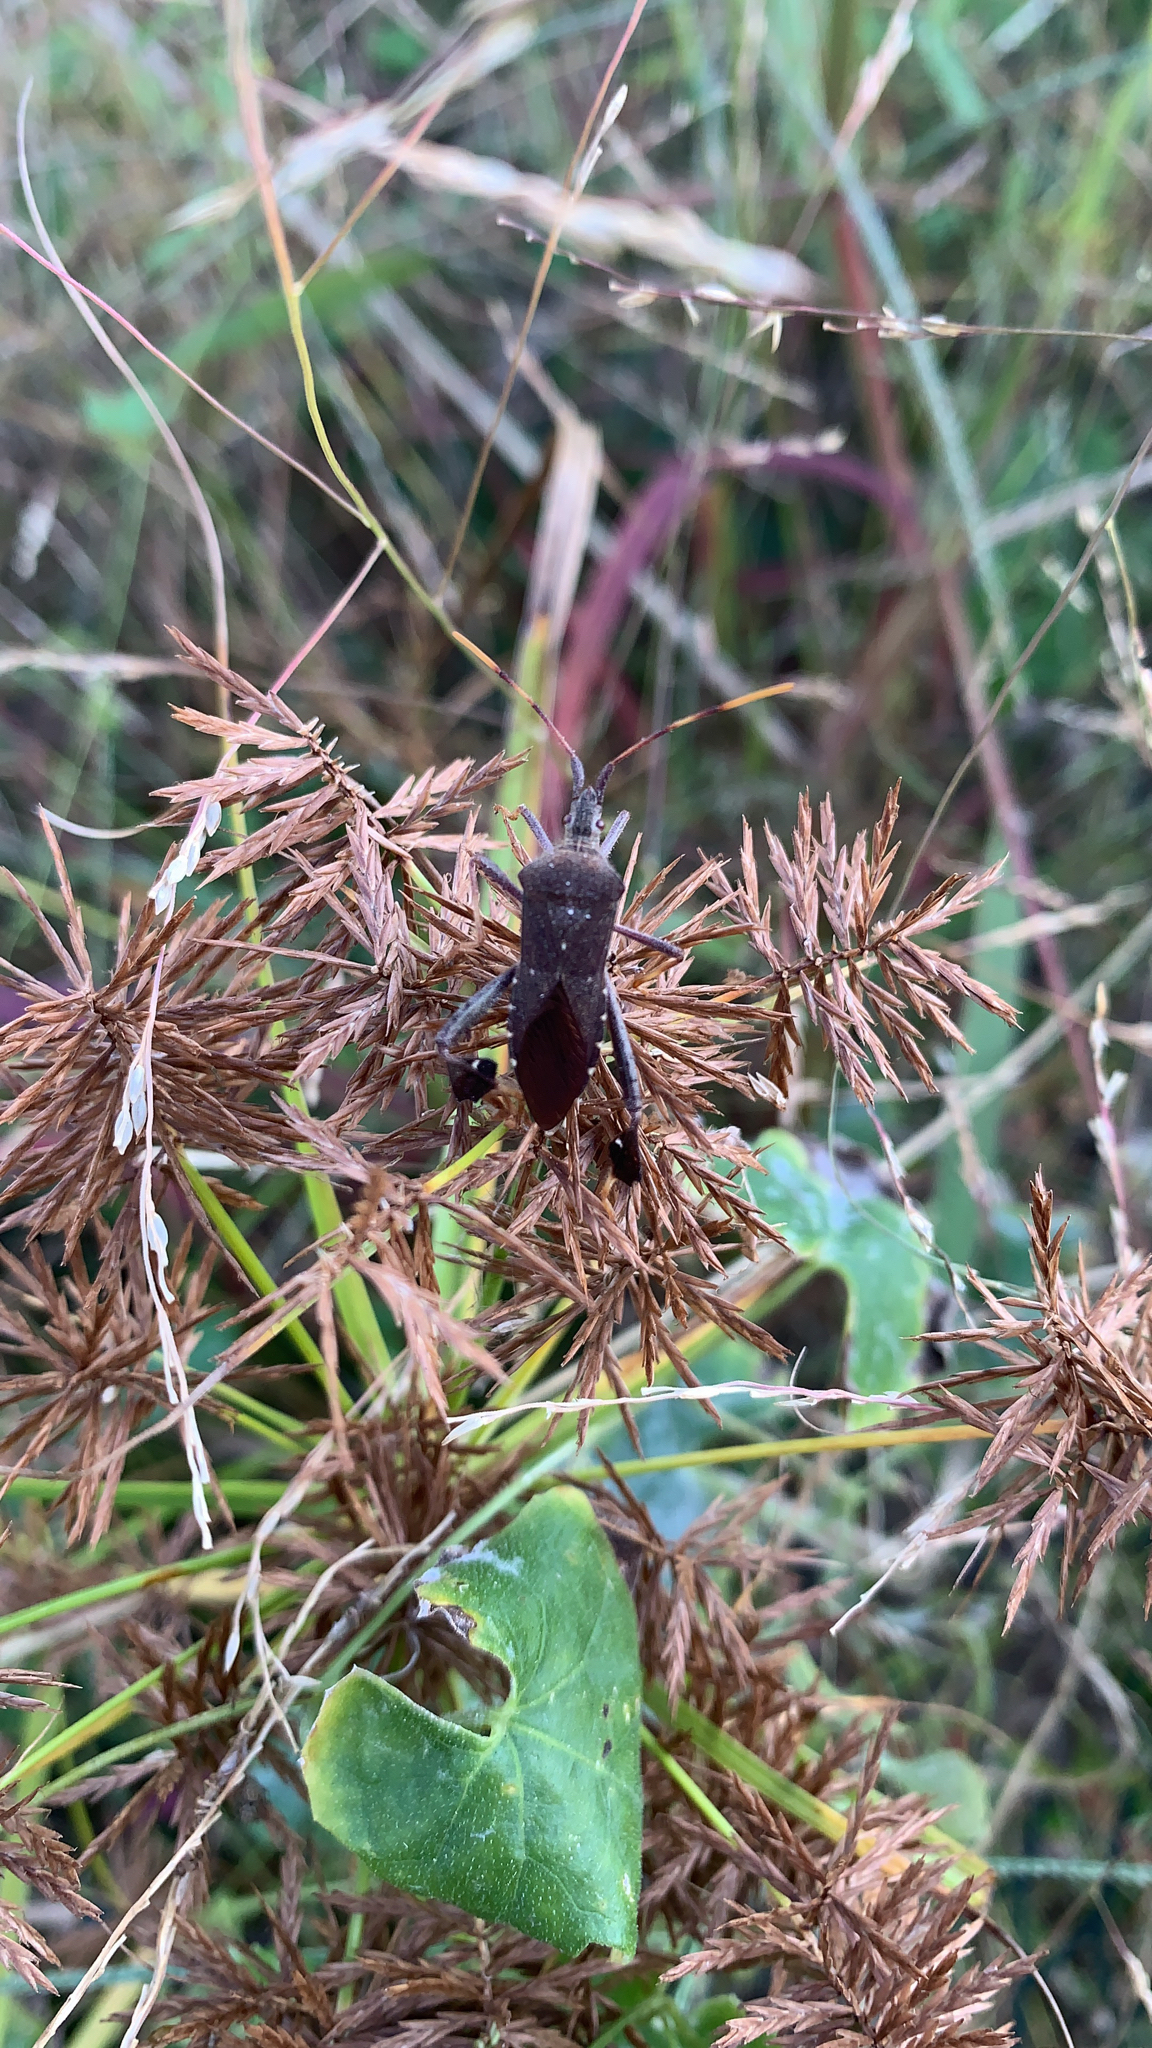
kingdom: Animalia
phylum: Arthropoda
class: Insecta
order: Hemiptera
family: Coreidae
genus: Leptoglossus
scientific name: Leptoglossus oppositus
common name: Northern leaf-footed bug
